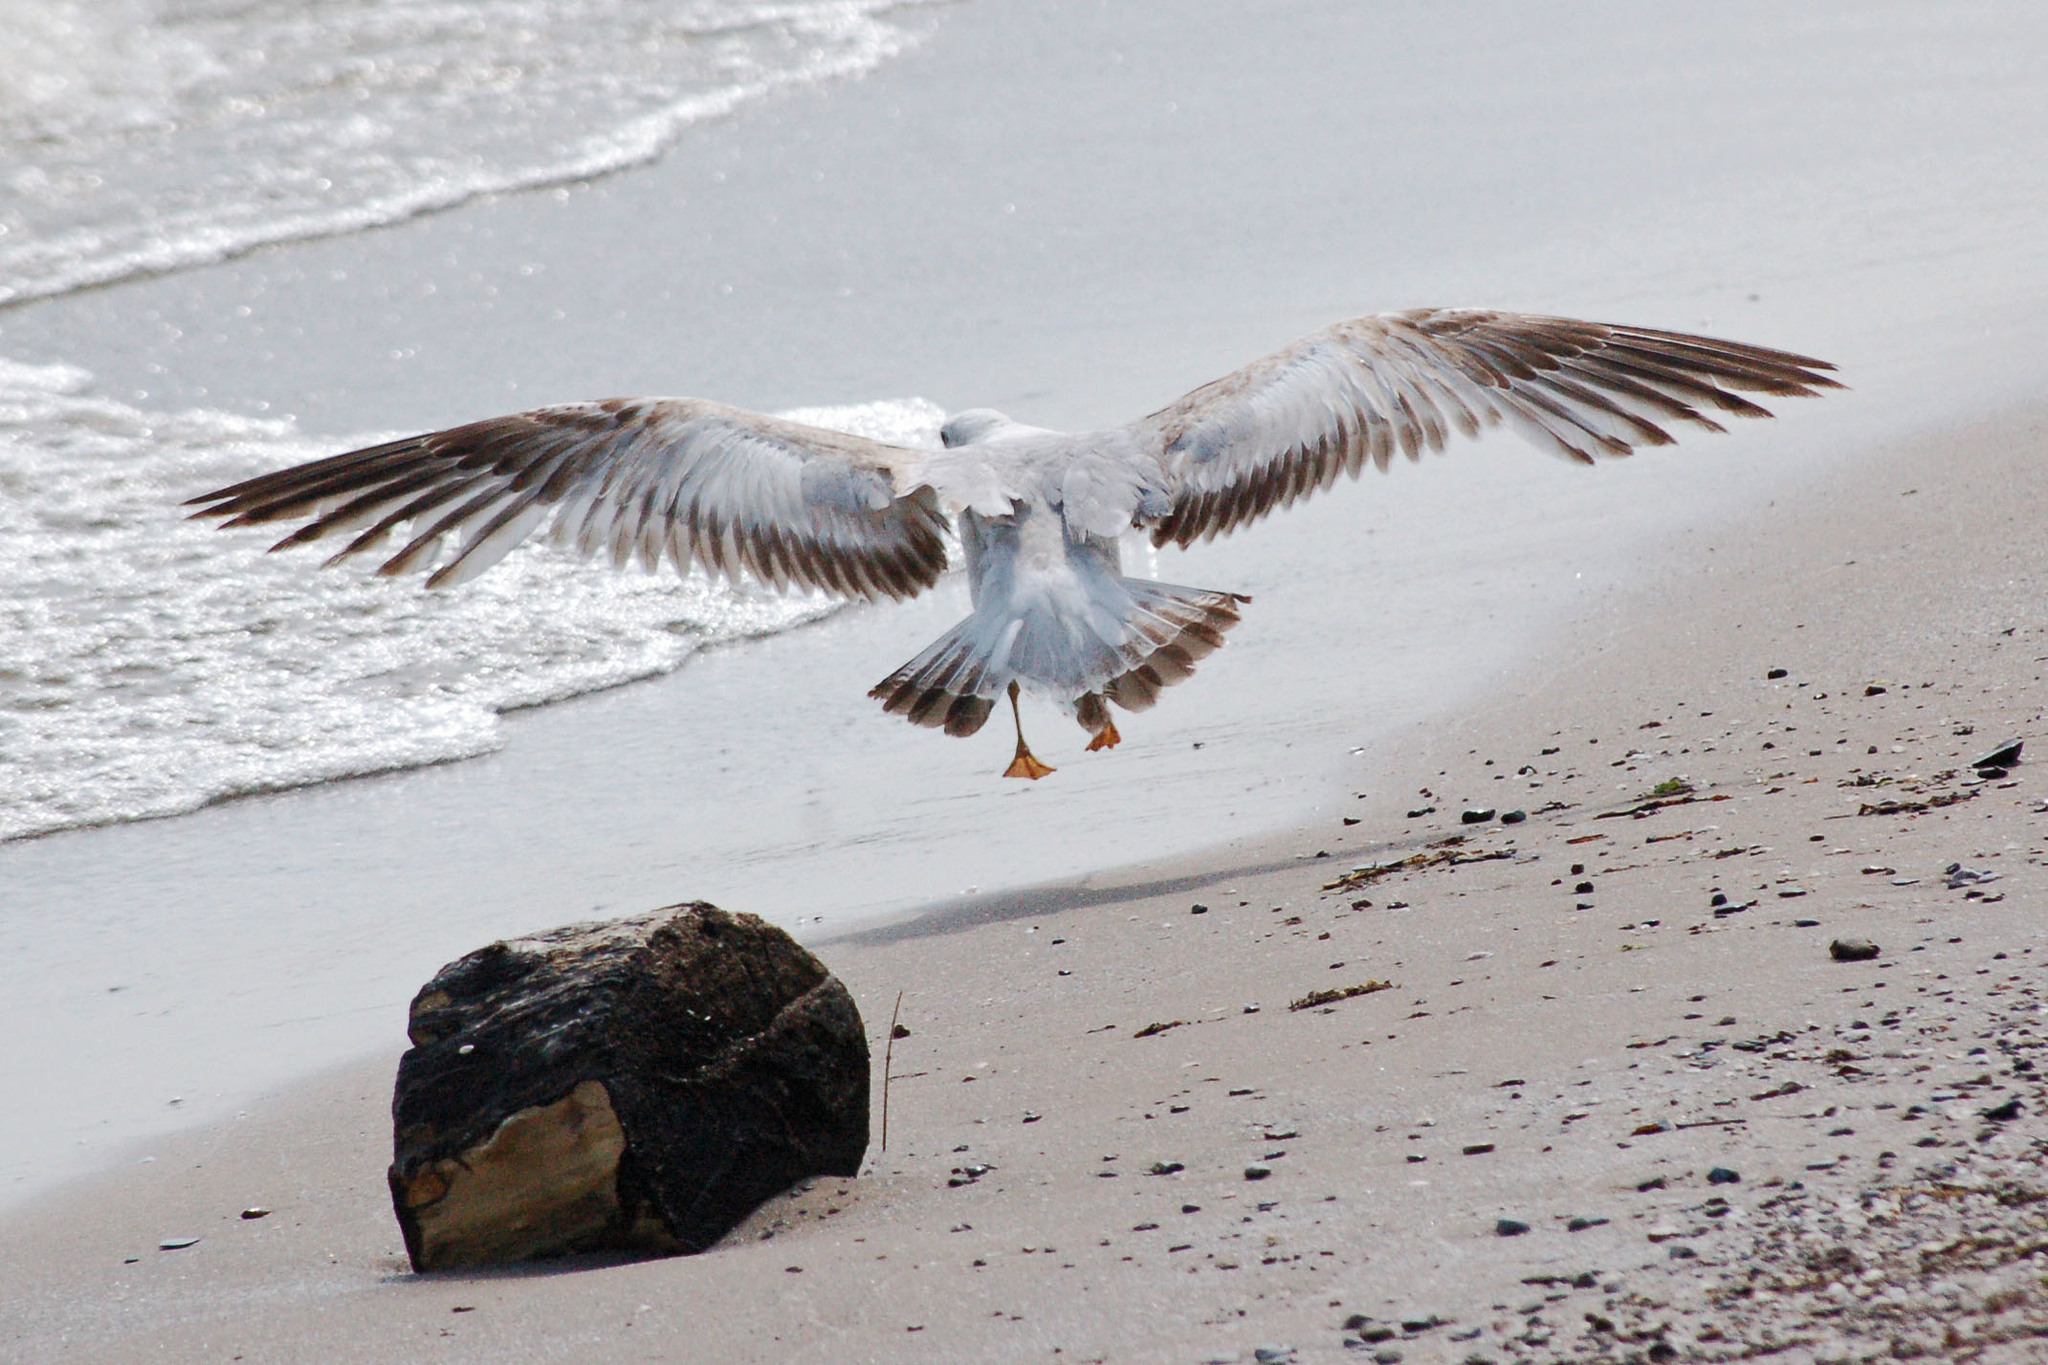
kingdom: Animalia
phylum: Chordata
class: Aves
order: Charadriiformes
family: Laridae
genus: Larus
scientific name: Larus delawarensis
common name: Ring-billed gull
